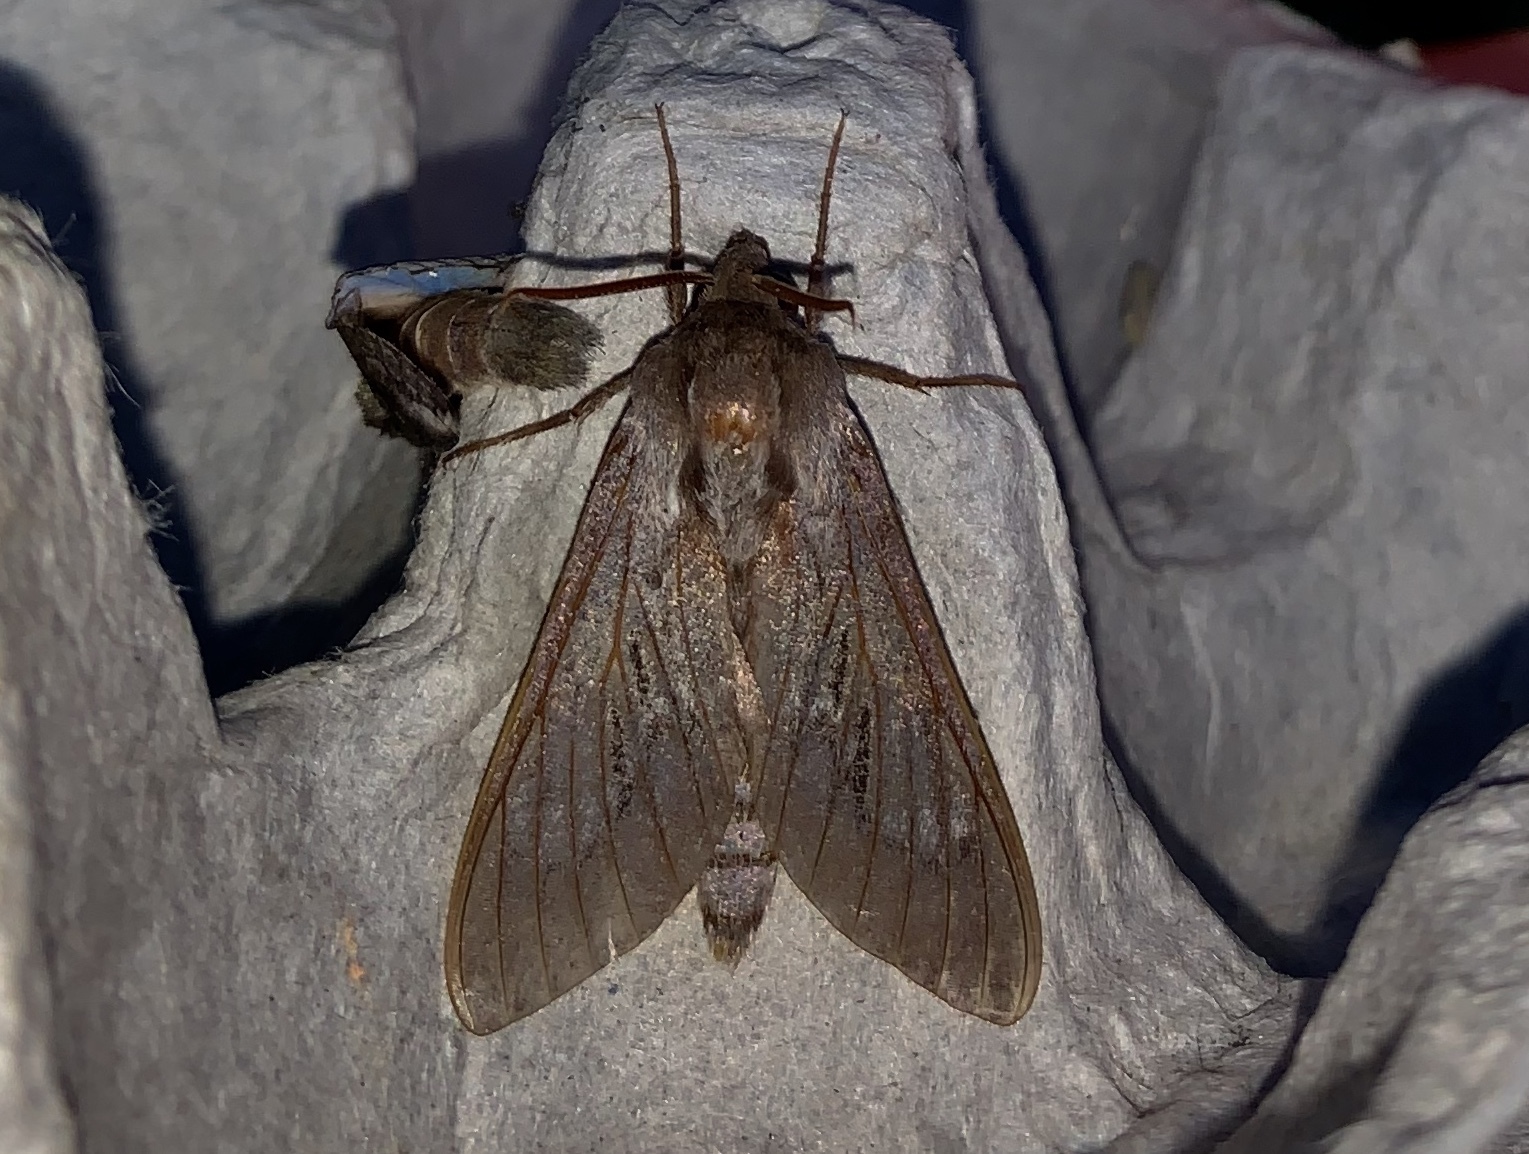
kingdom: Animalia
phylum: Arthropoda
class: Insecta
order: Lepidoptera
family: Sphingidae
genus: Lapara
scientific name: Lapara coniferarum
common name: Southern pine sphinx
